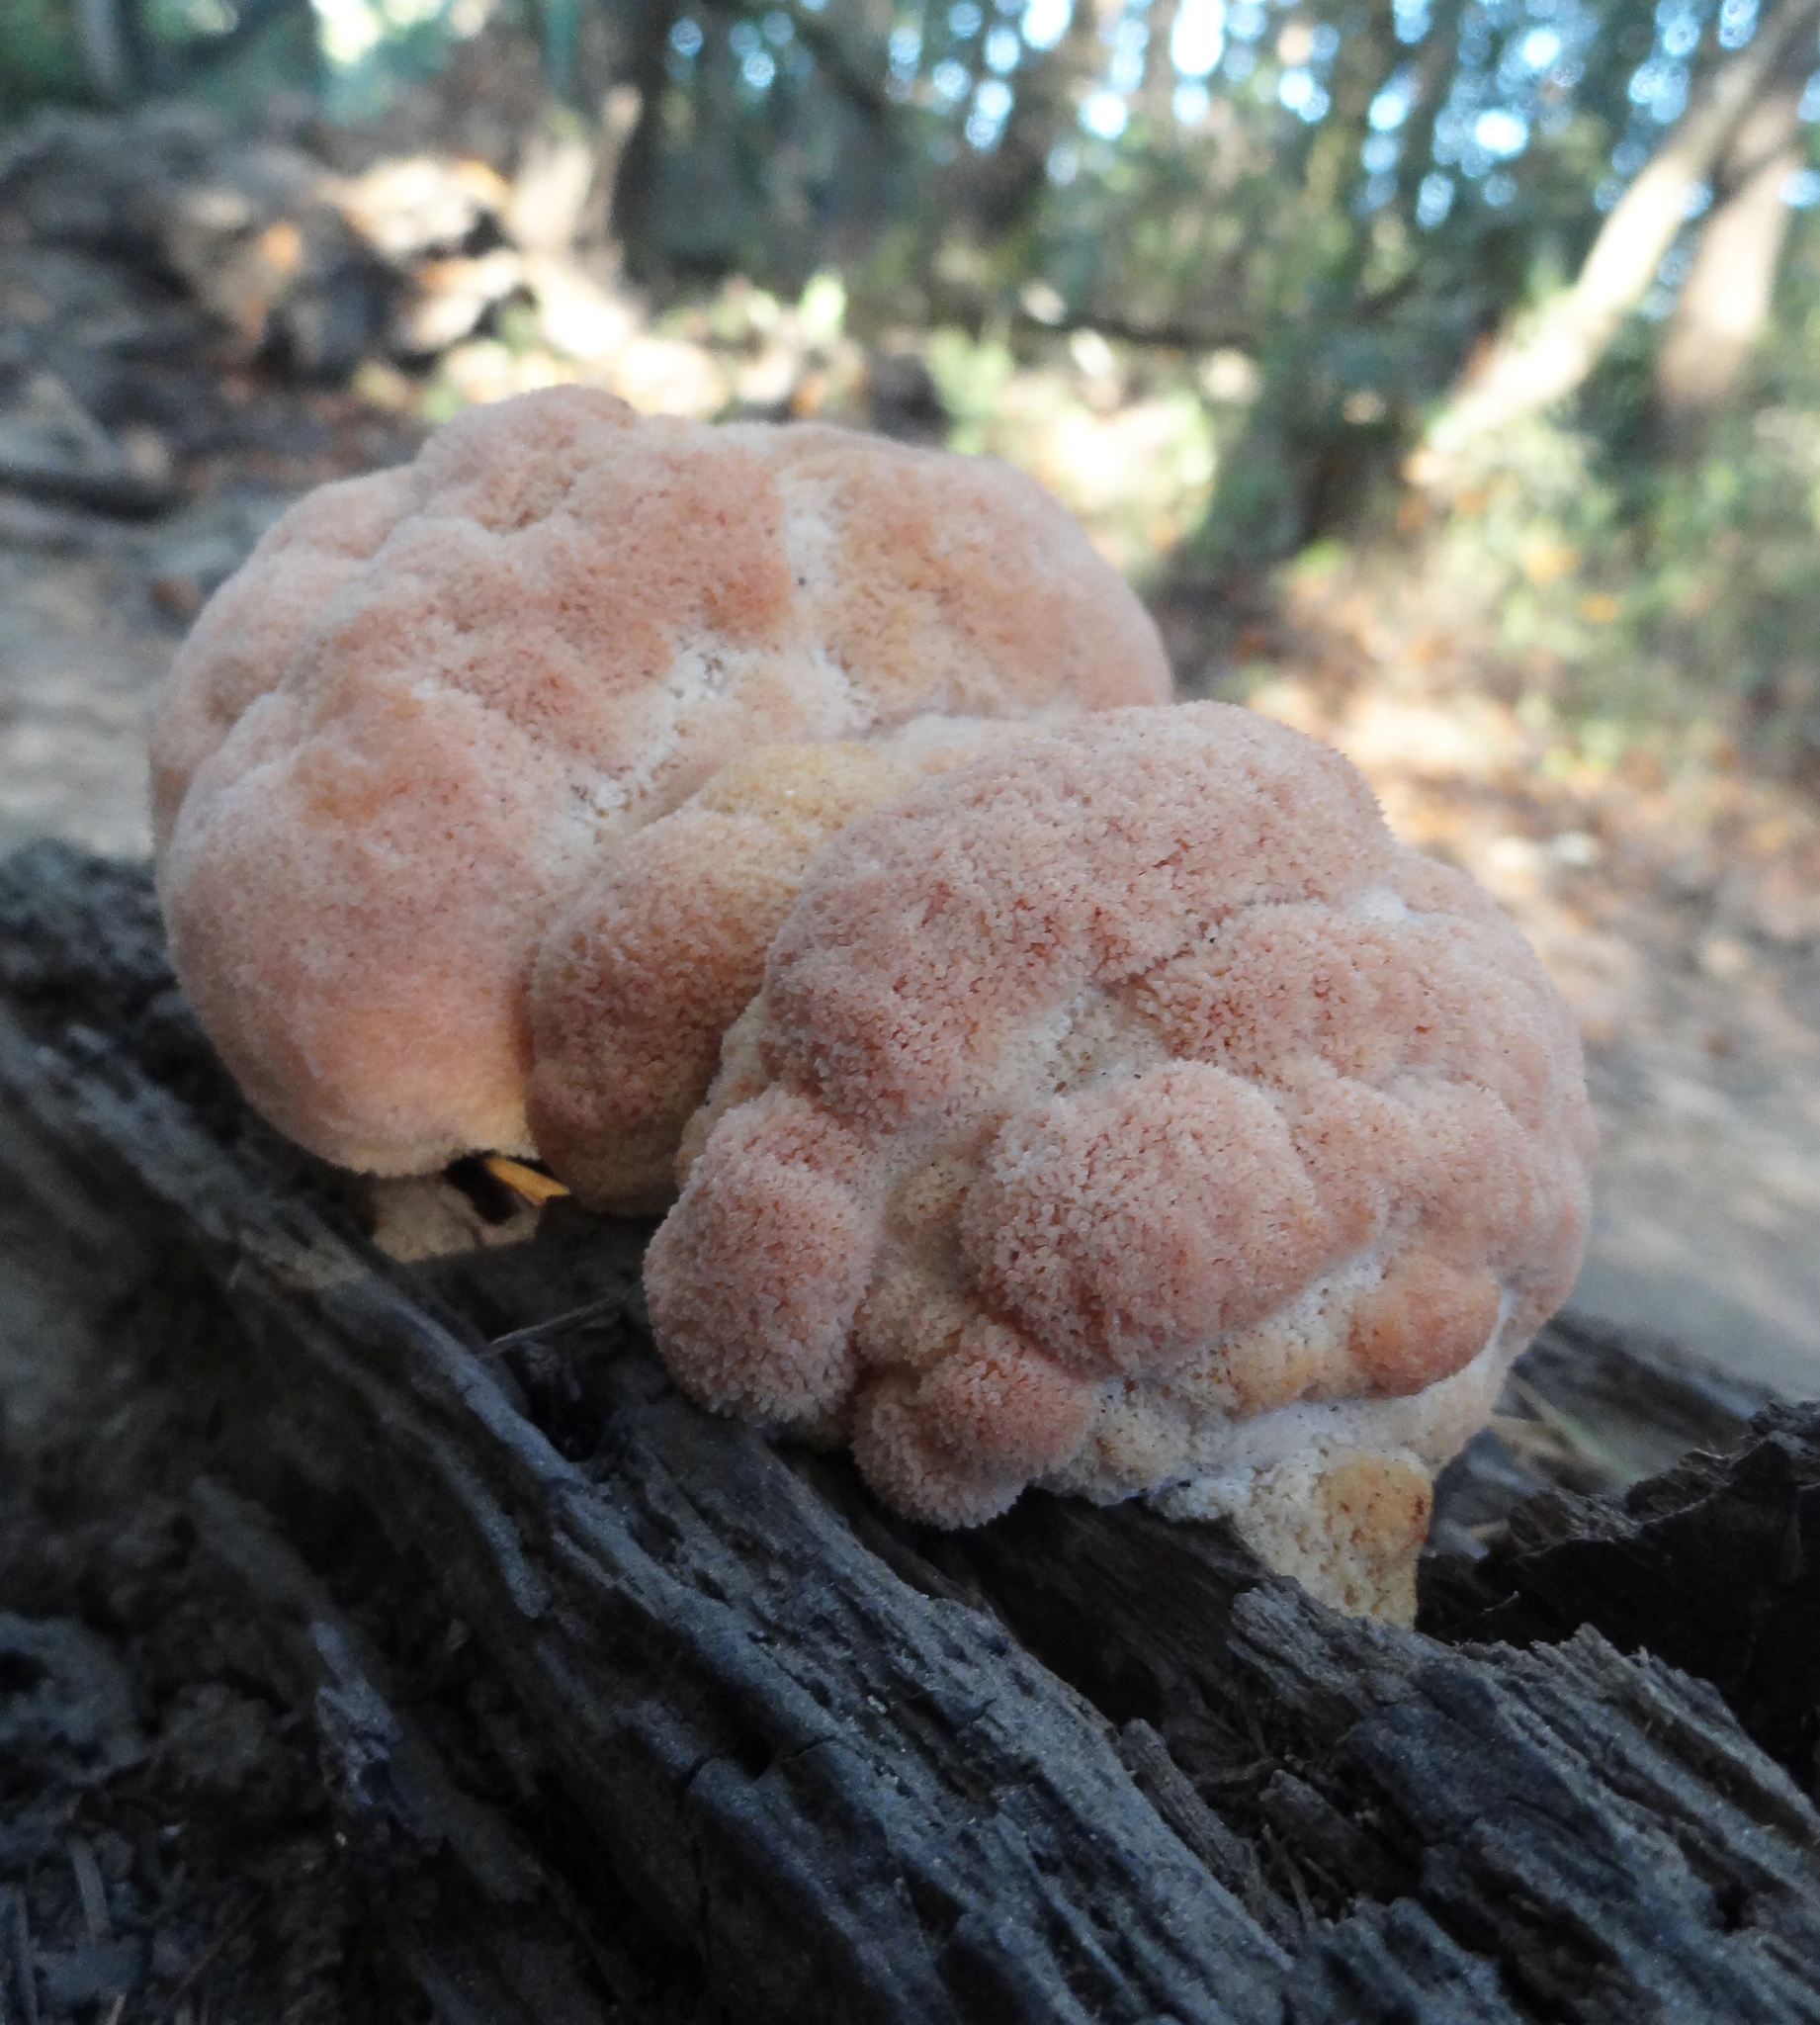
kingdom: Fungi
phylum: Basidiomycota
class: Agaricomycetes
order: Russulales
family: Hericiaceae
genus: Hericium
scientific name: Hericium erinaceus
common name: Bearded tooth
